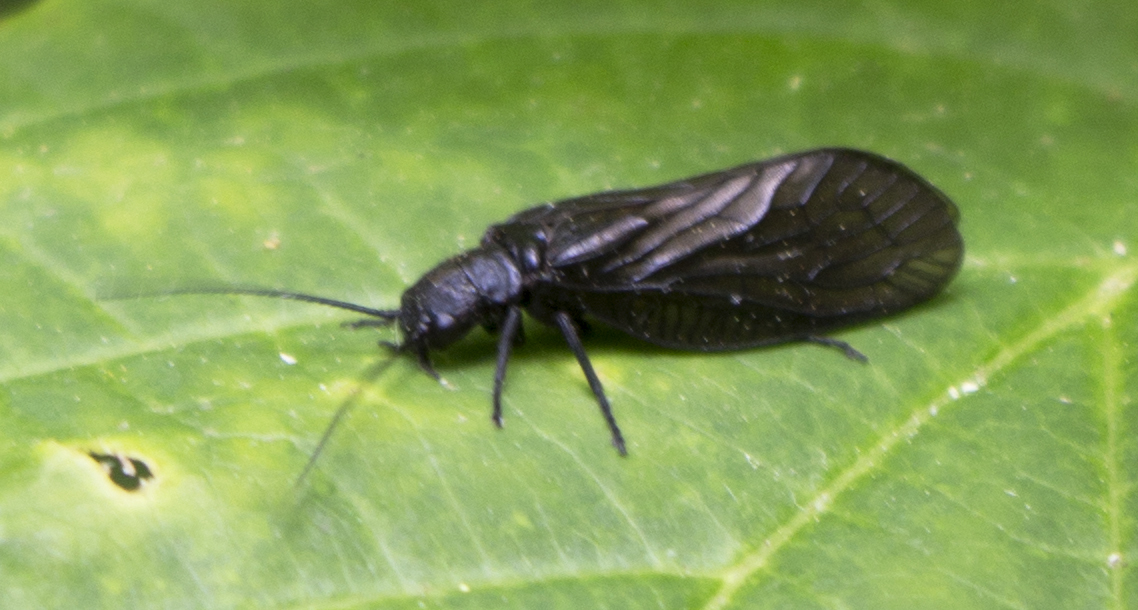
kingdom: Animalia
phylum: Arthropoda
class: Insecta
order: Megaloptera
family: Sialidae
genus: Sialis
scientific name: Sialis
